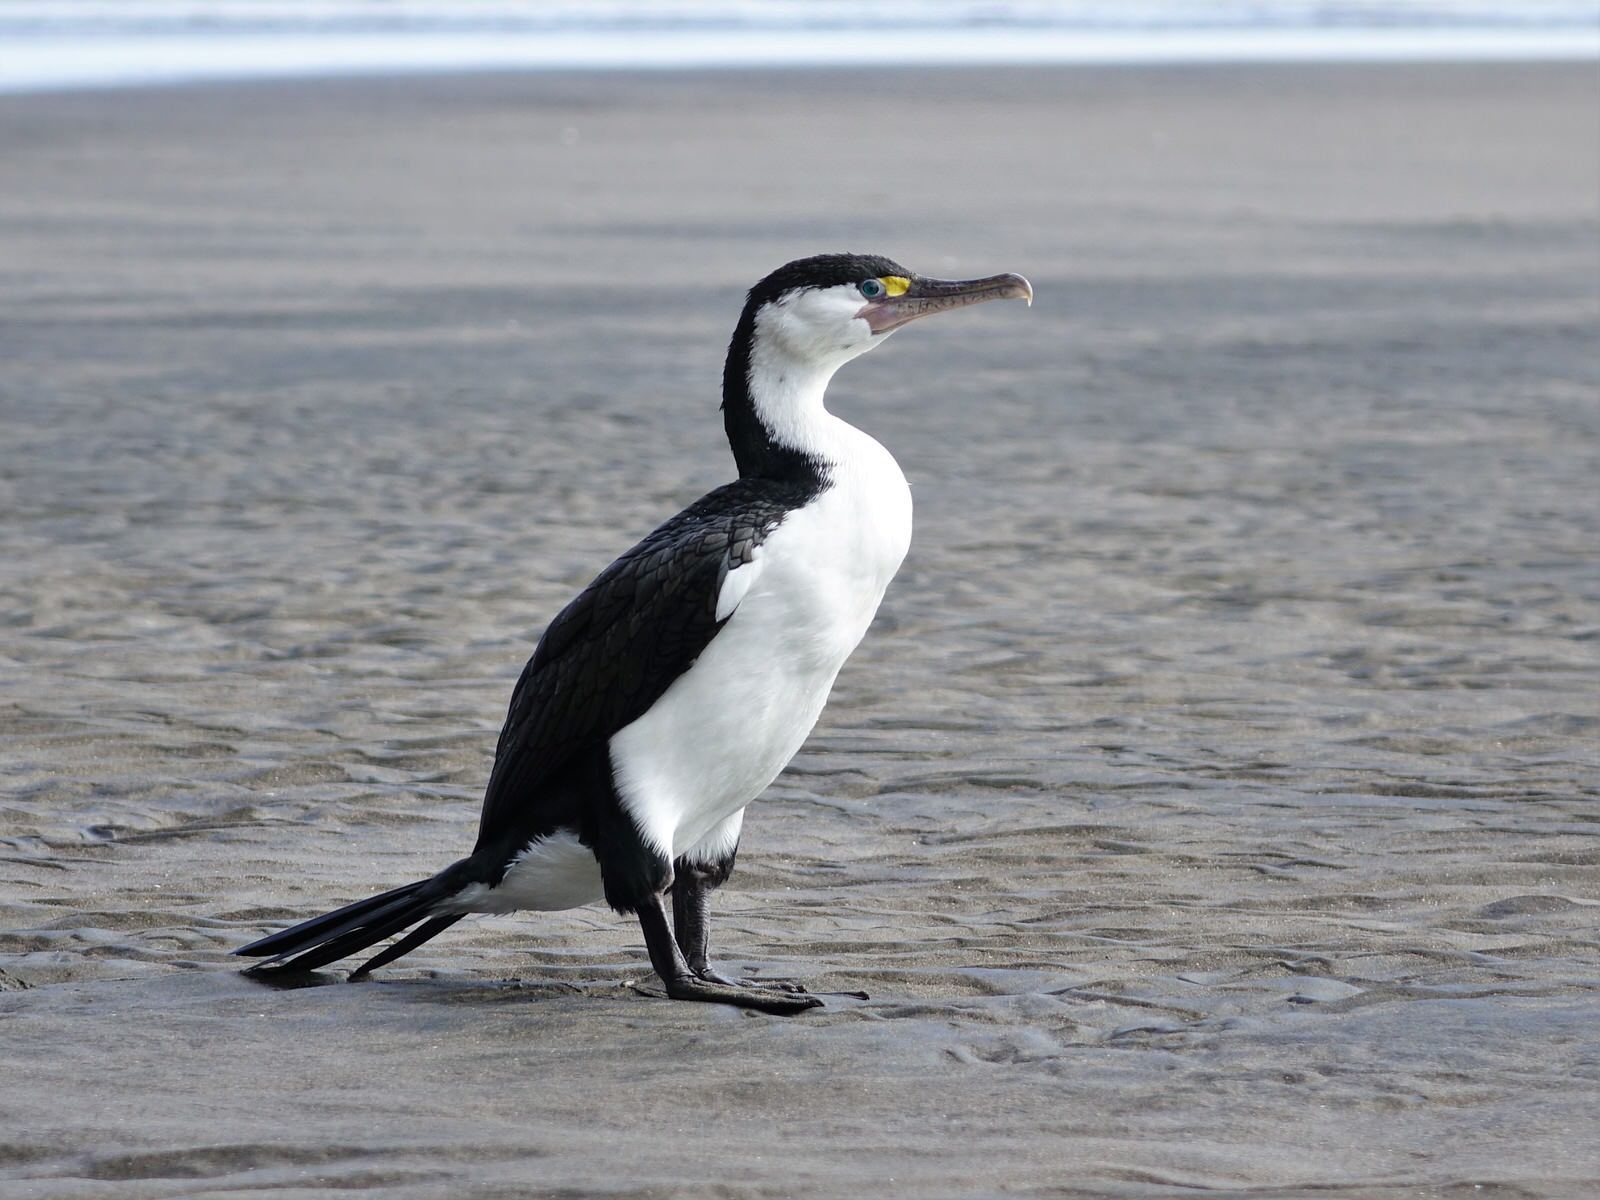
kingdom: Animalia
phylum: Chordata
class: Aves
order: Suliformes
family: Phalacrocoracidae
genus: Phalacrocorax
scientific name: Phalacrocorax varius
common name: Pied cormorant
